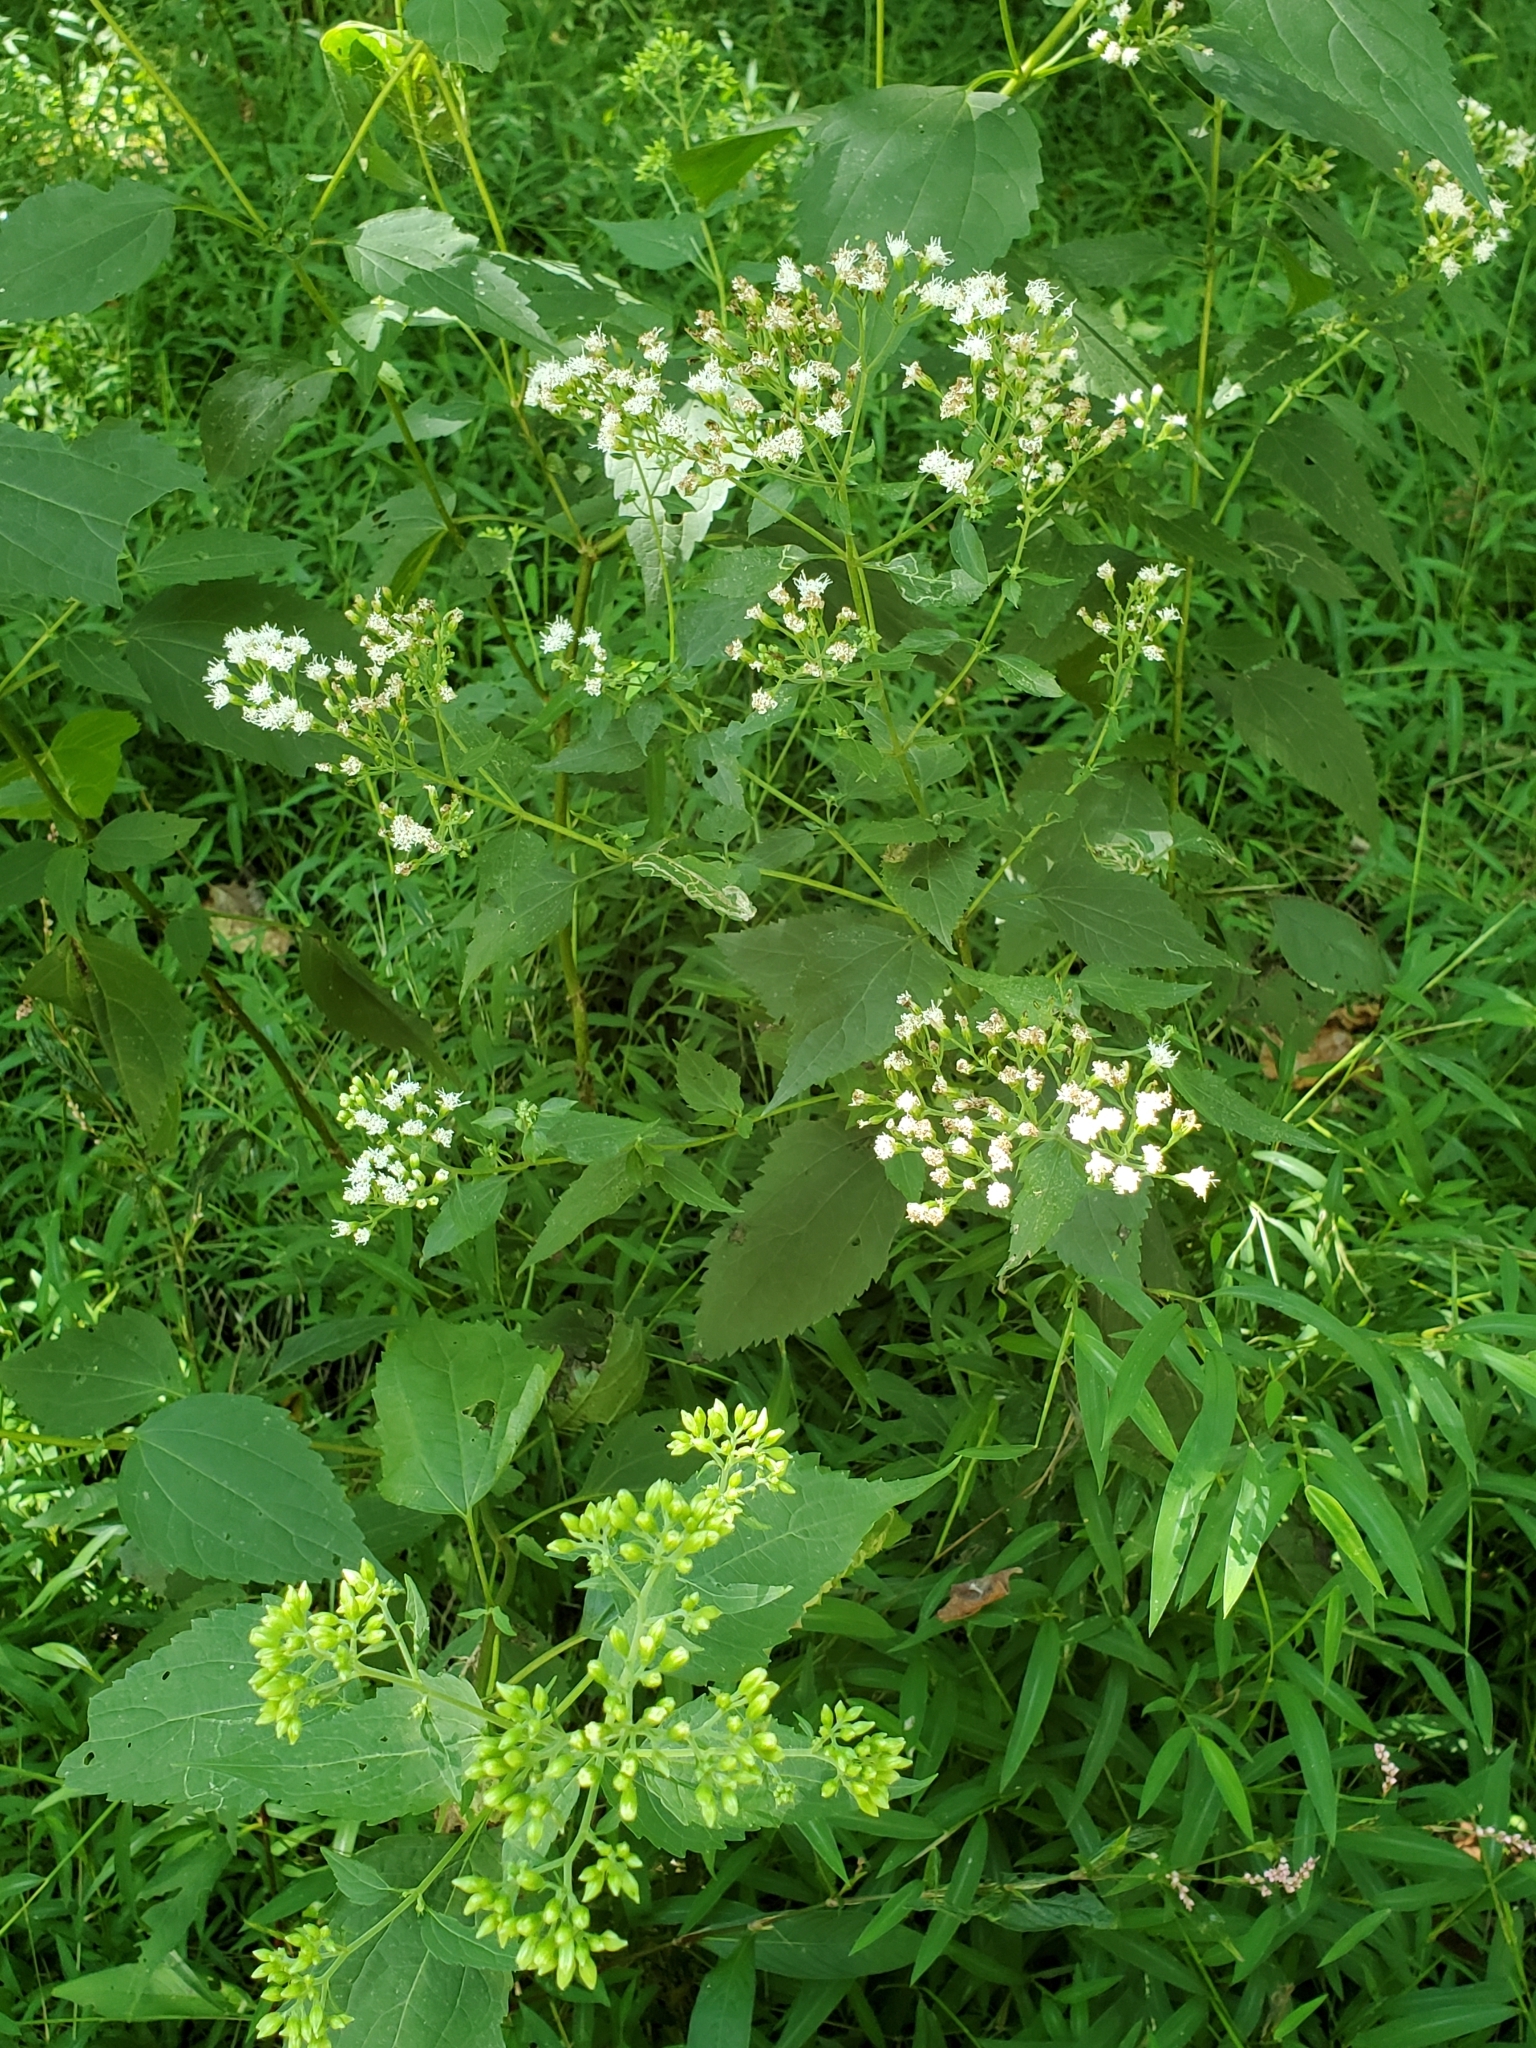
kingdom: Plantae
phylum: Tracheophyta
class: Magnoliopsida
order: Asterales
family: Asteraceae
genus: Ageratina
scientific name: Ageratina altissima
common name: White snakeroot
